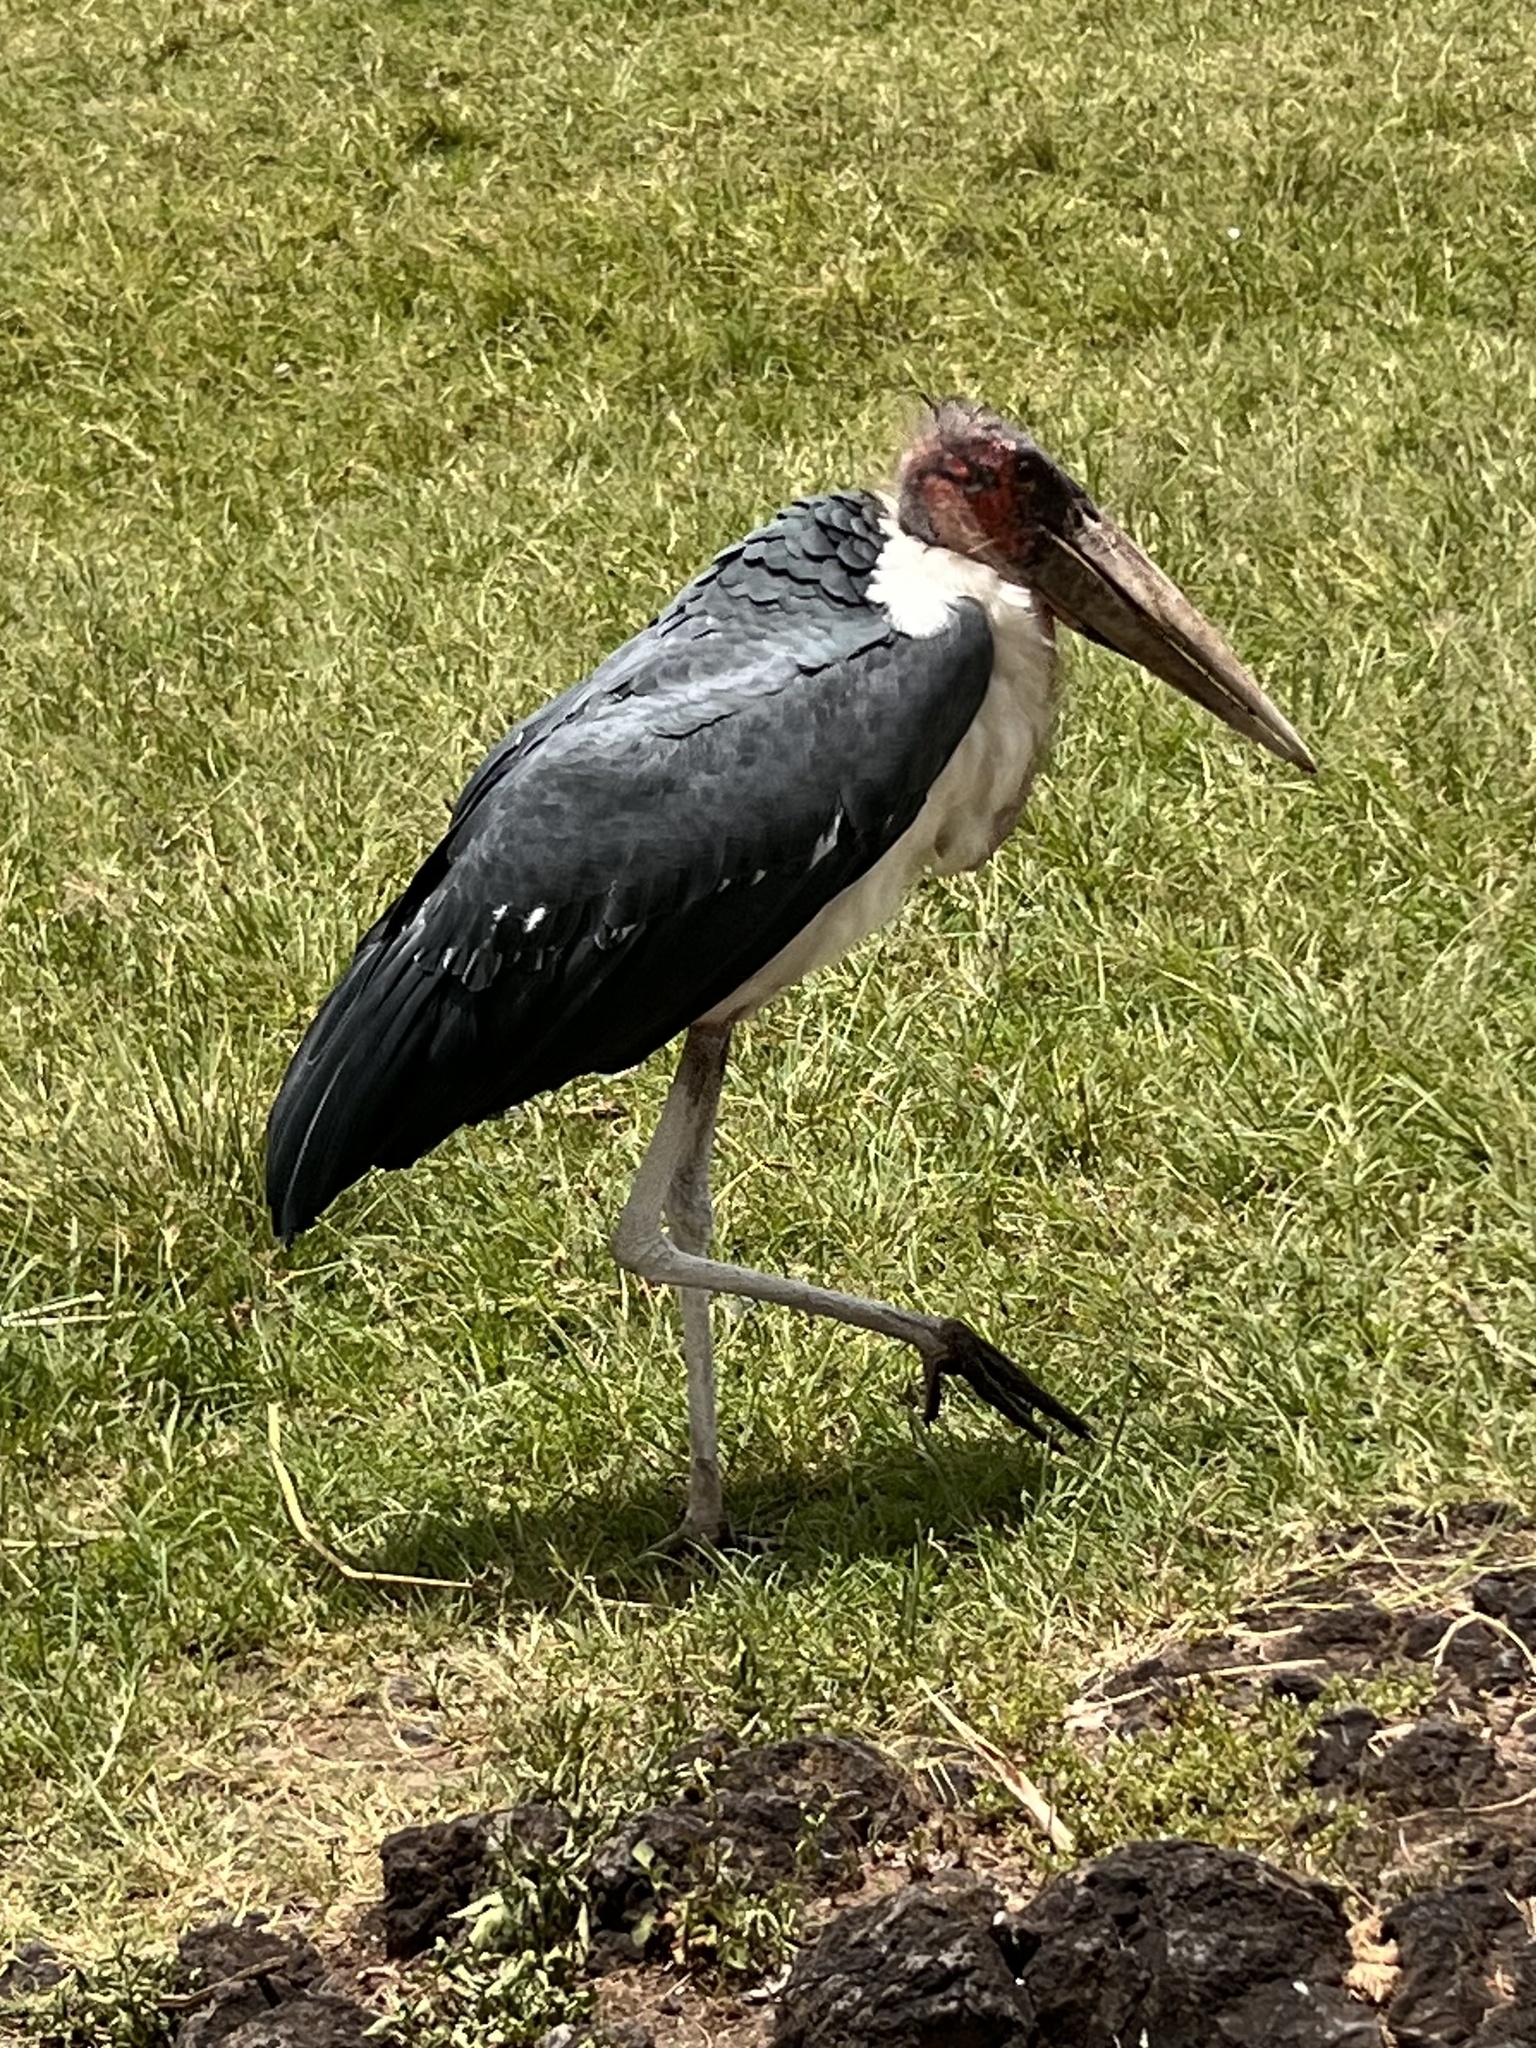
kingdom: Animalia
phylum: Chordata
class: Aves
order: Ciconiiformes
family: Ciconiidae
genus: Leptoptilos
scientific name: Leptoptilos crumenifer
